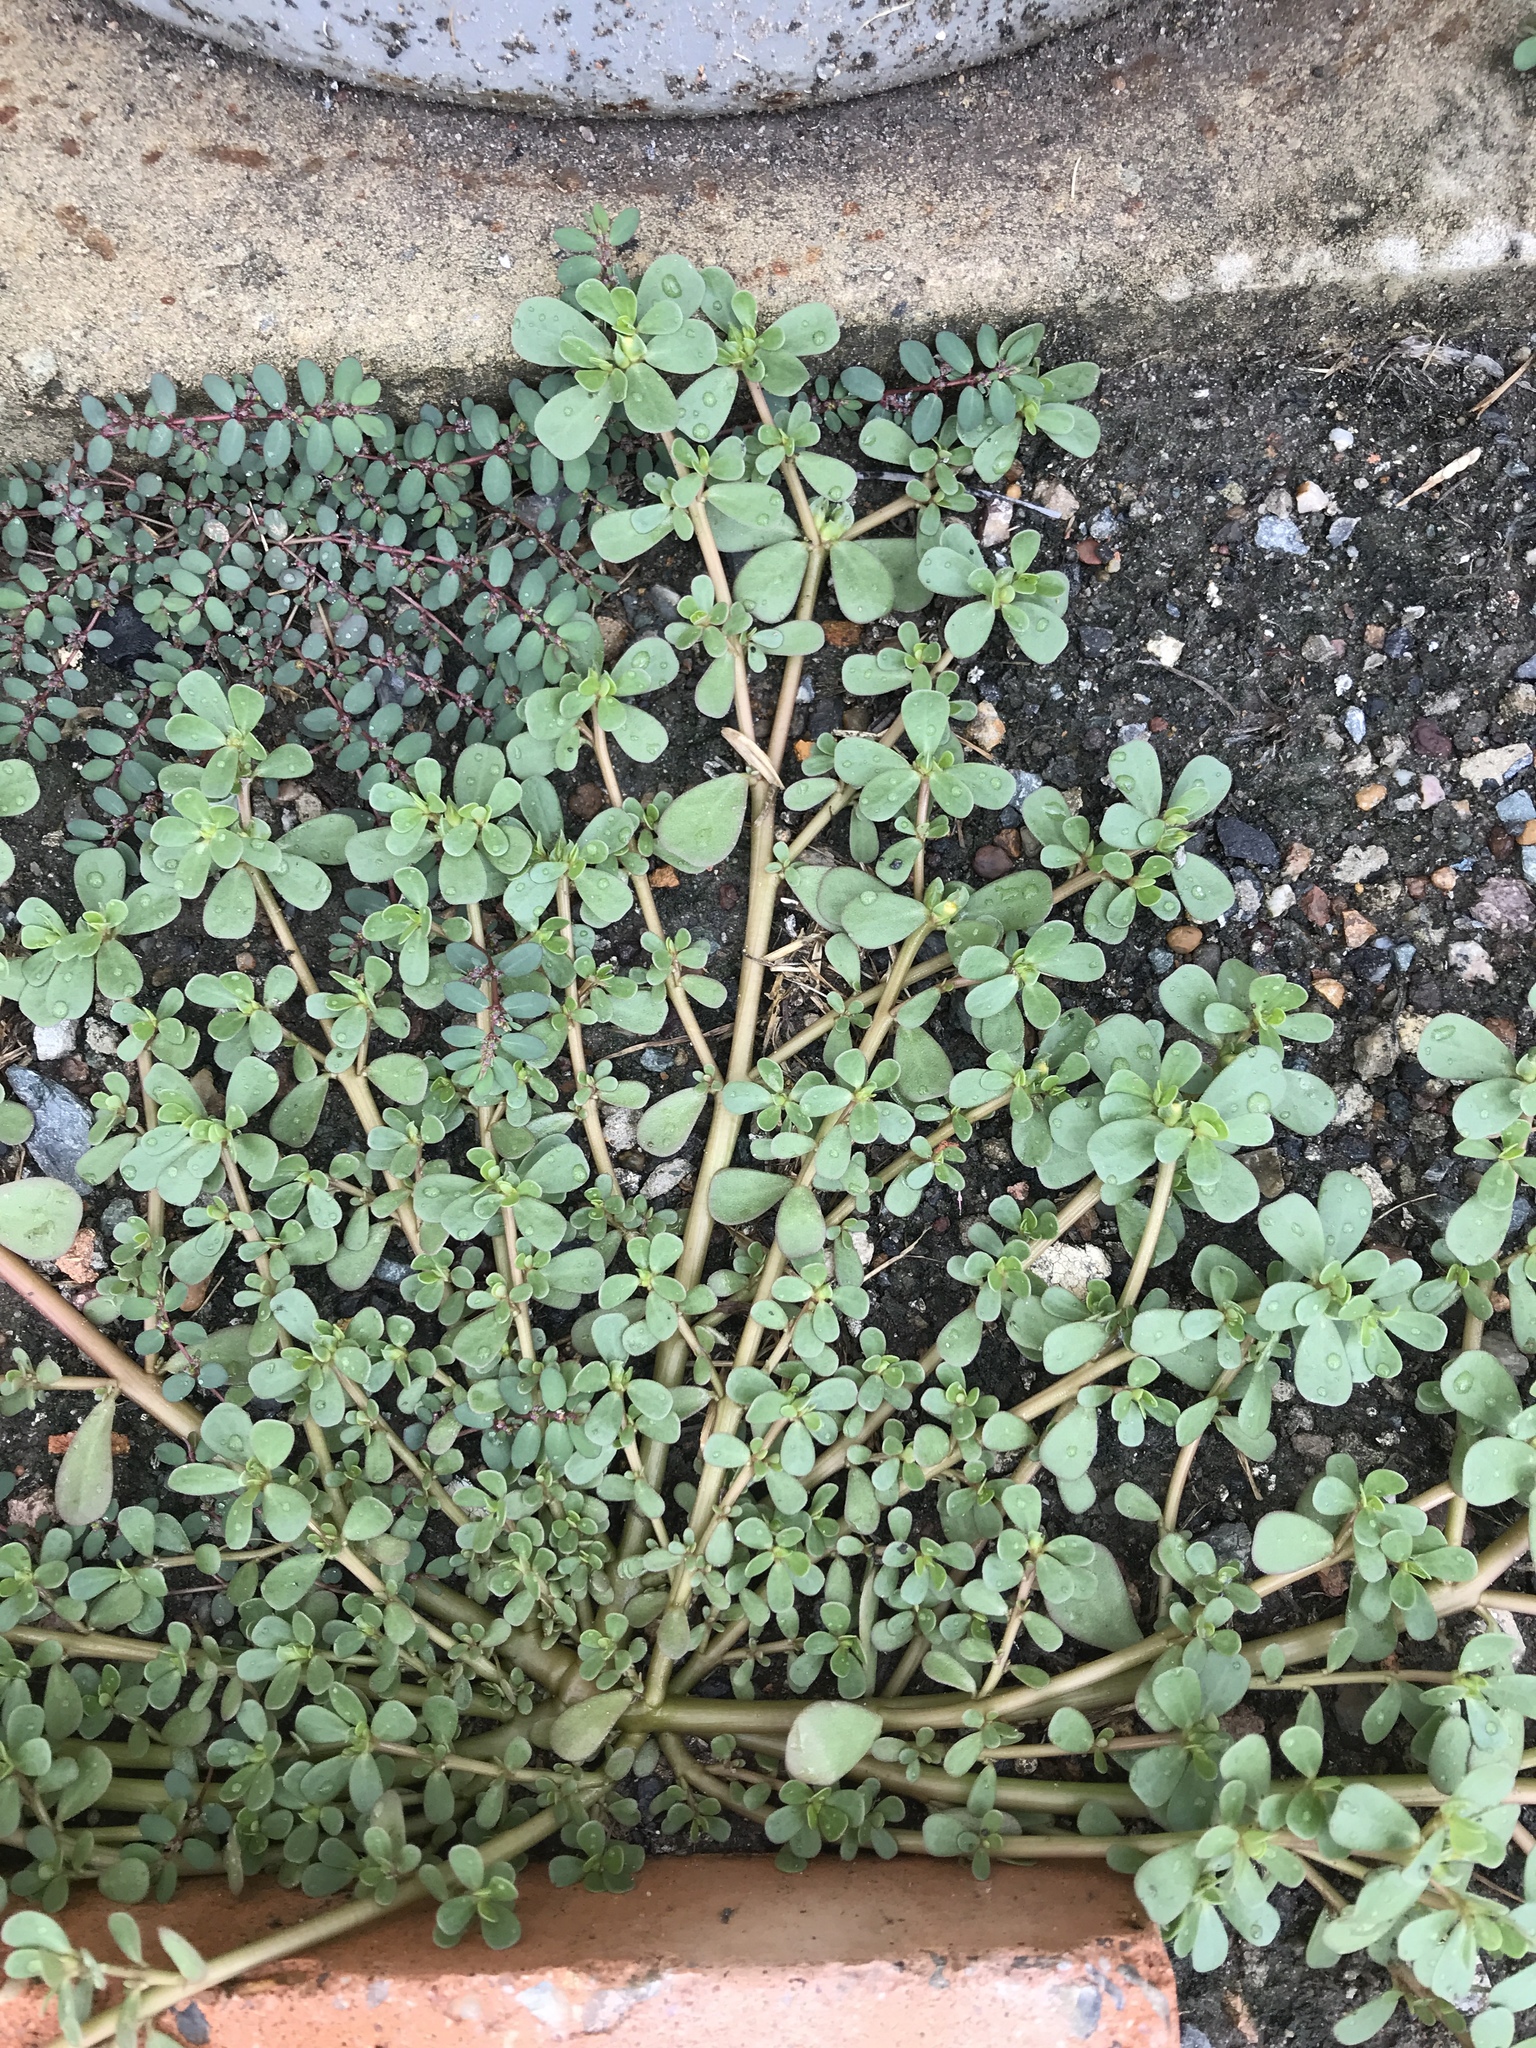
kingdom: Plantae
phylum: Tracheophyta
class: Magnoliopsida
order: Caryophyllales
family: Portulacaceae
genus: Portulaca
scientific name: Portulaca oleracea
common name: Common purslane
